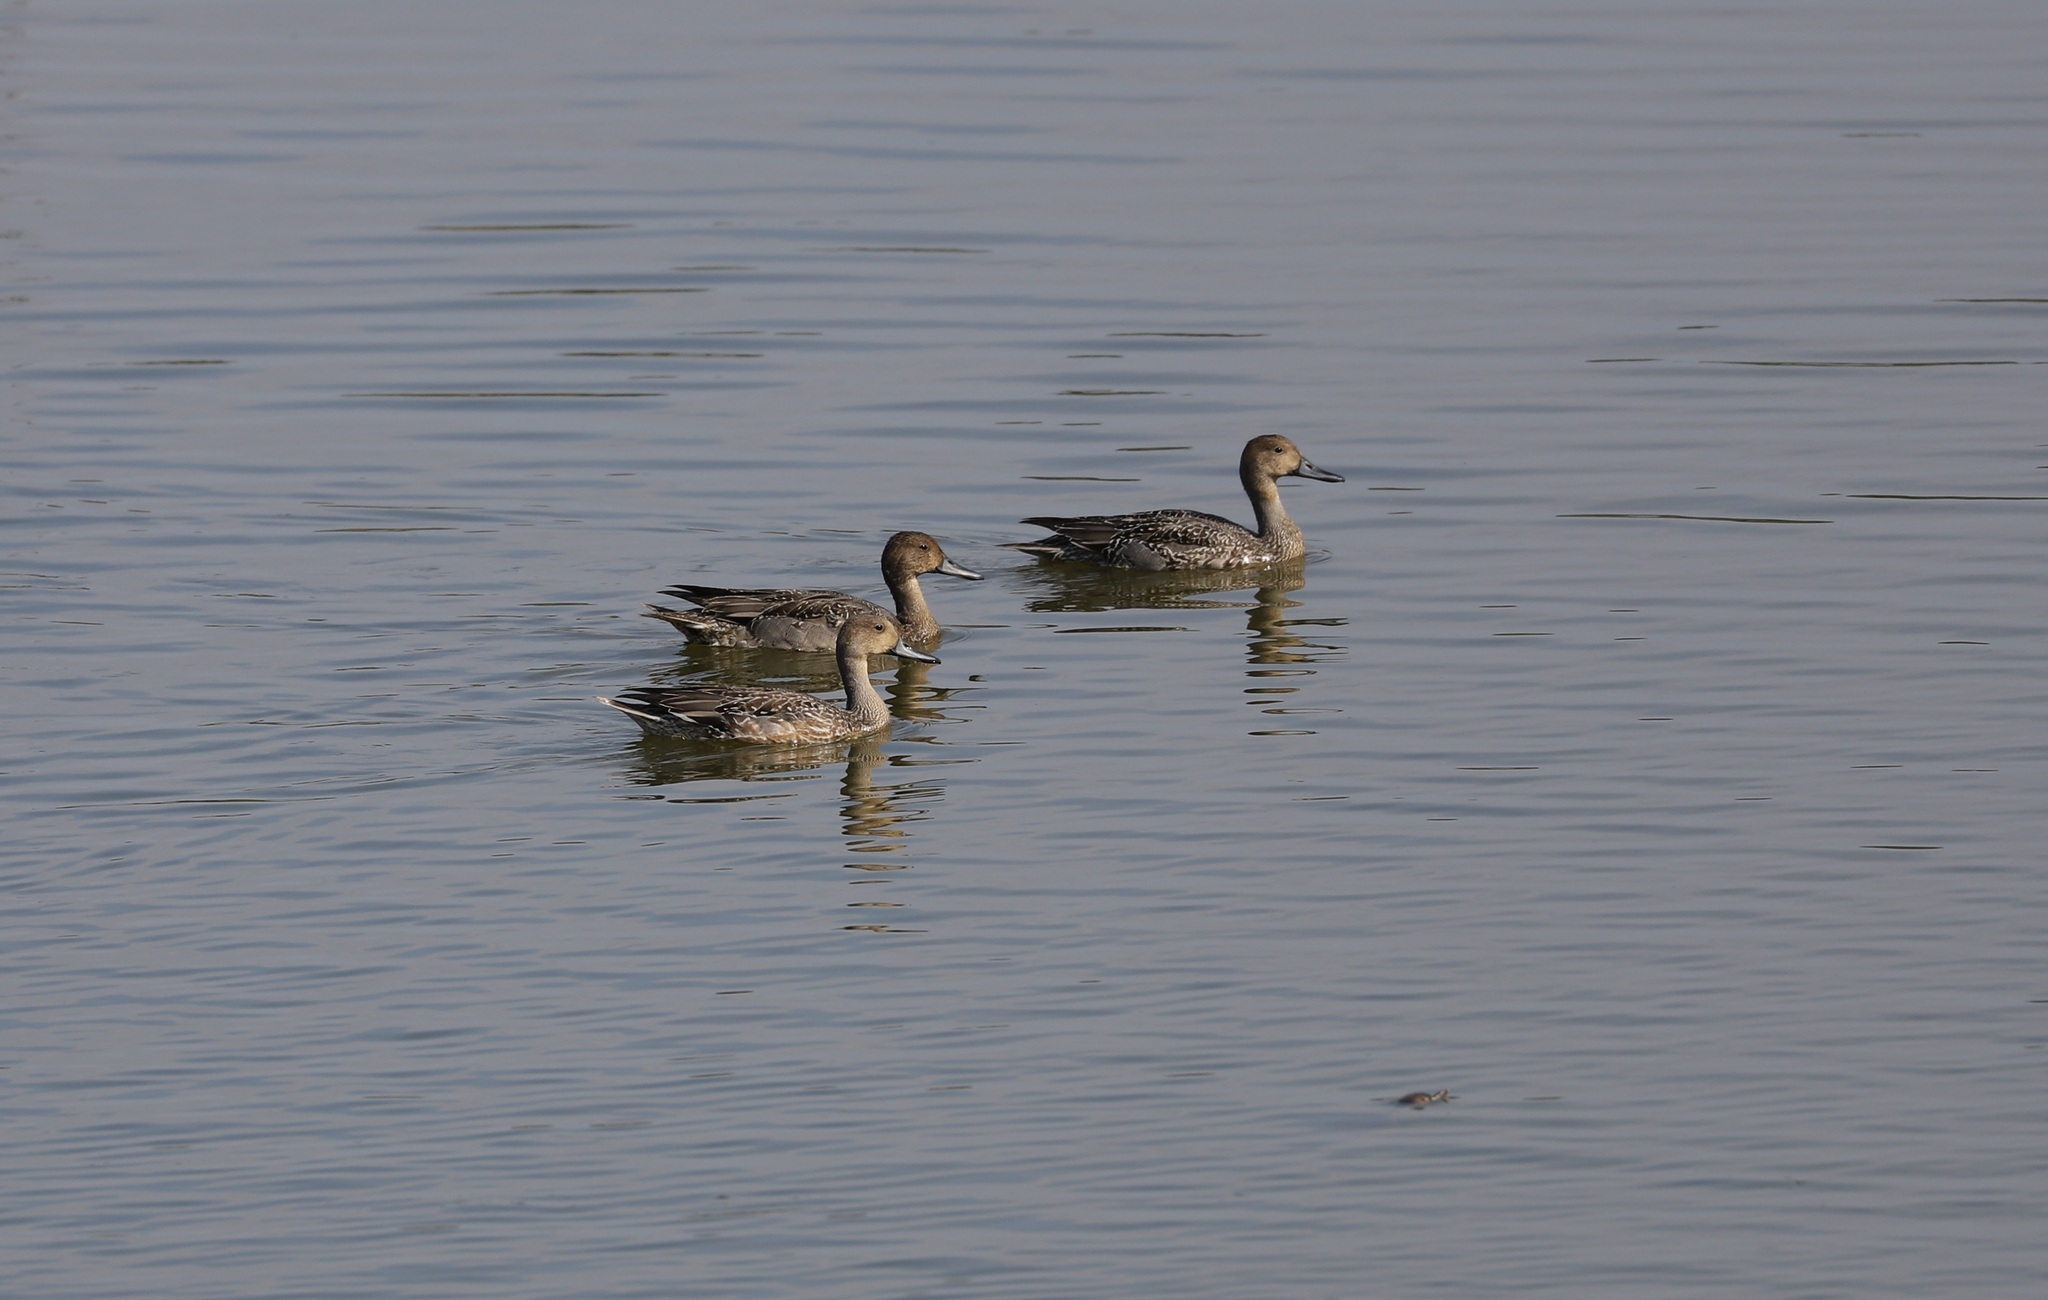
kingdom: Animalia
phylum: Chordata
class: Aves
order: Anseriformes
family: Anatidae
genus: Anas
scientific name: Anas acuta
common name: Northern pintail
